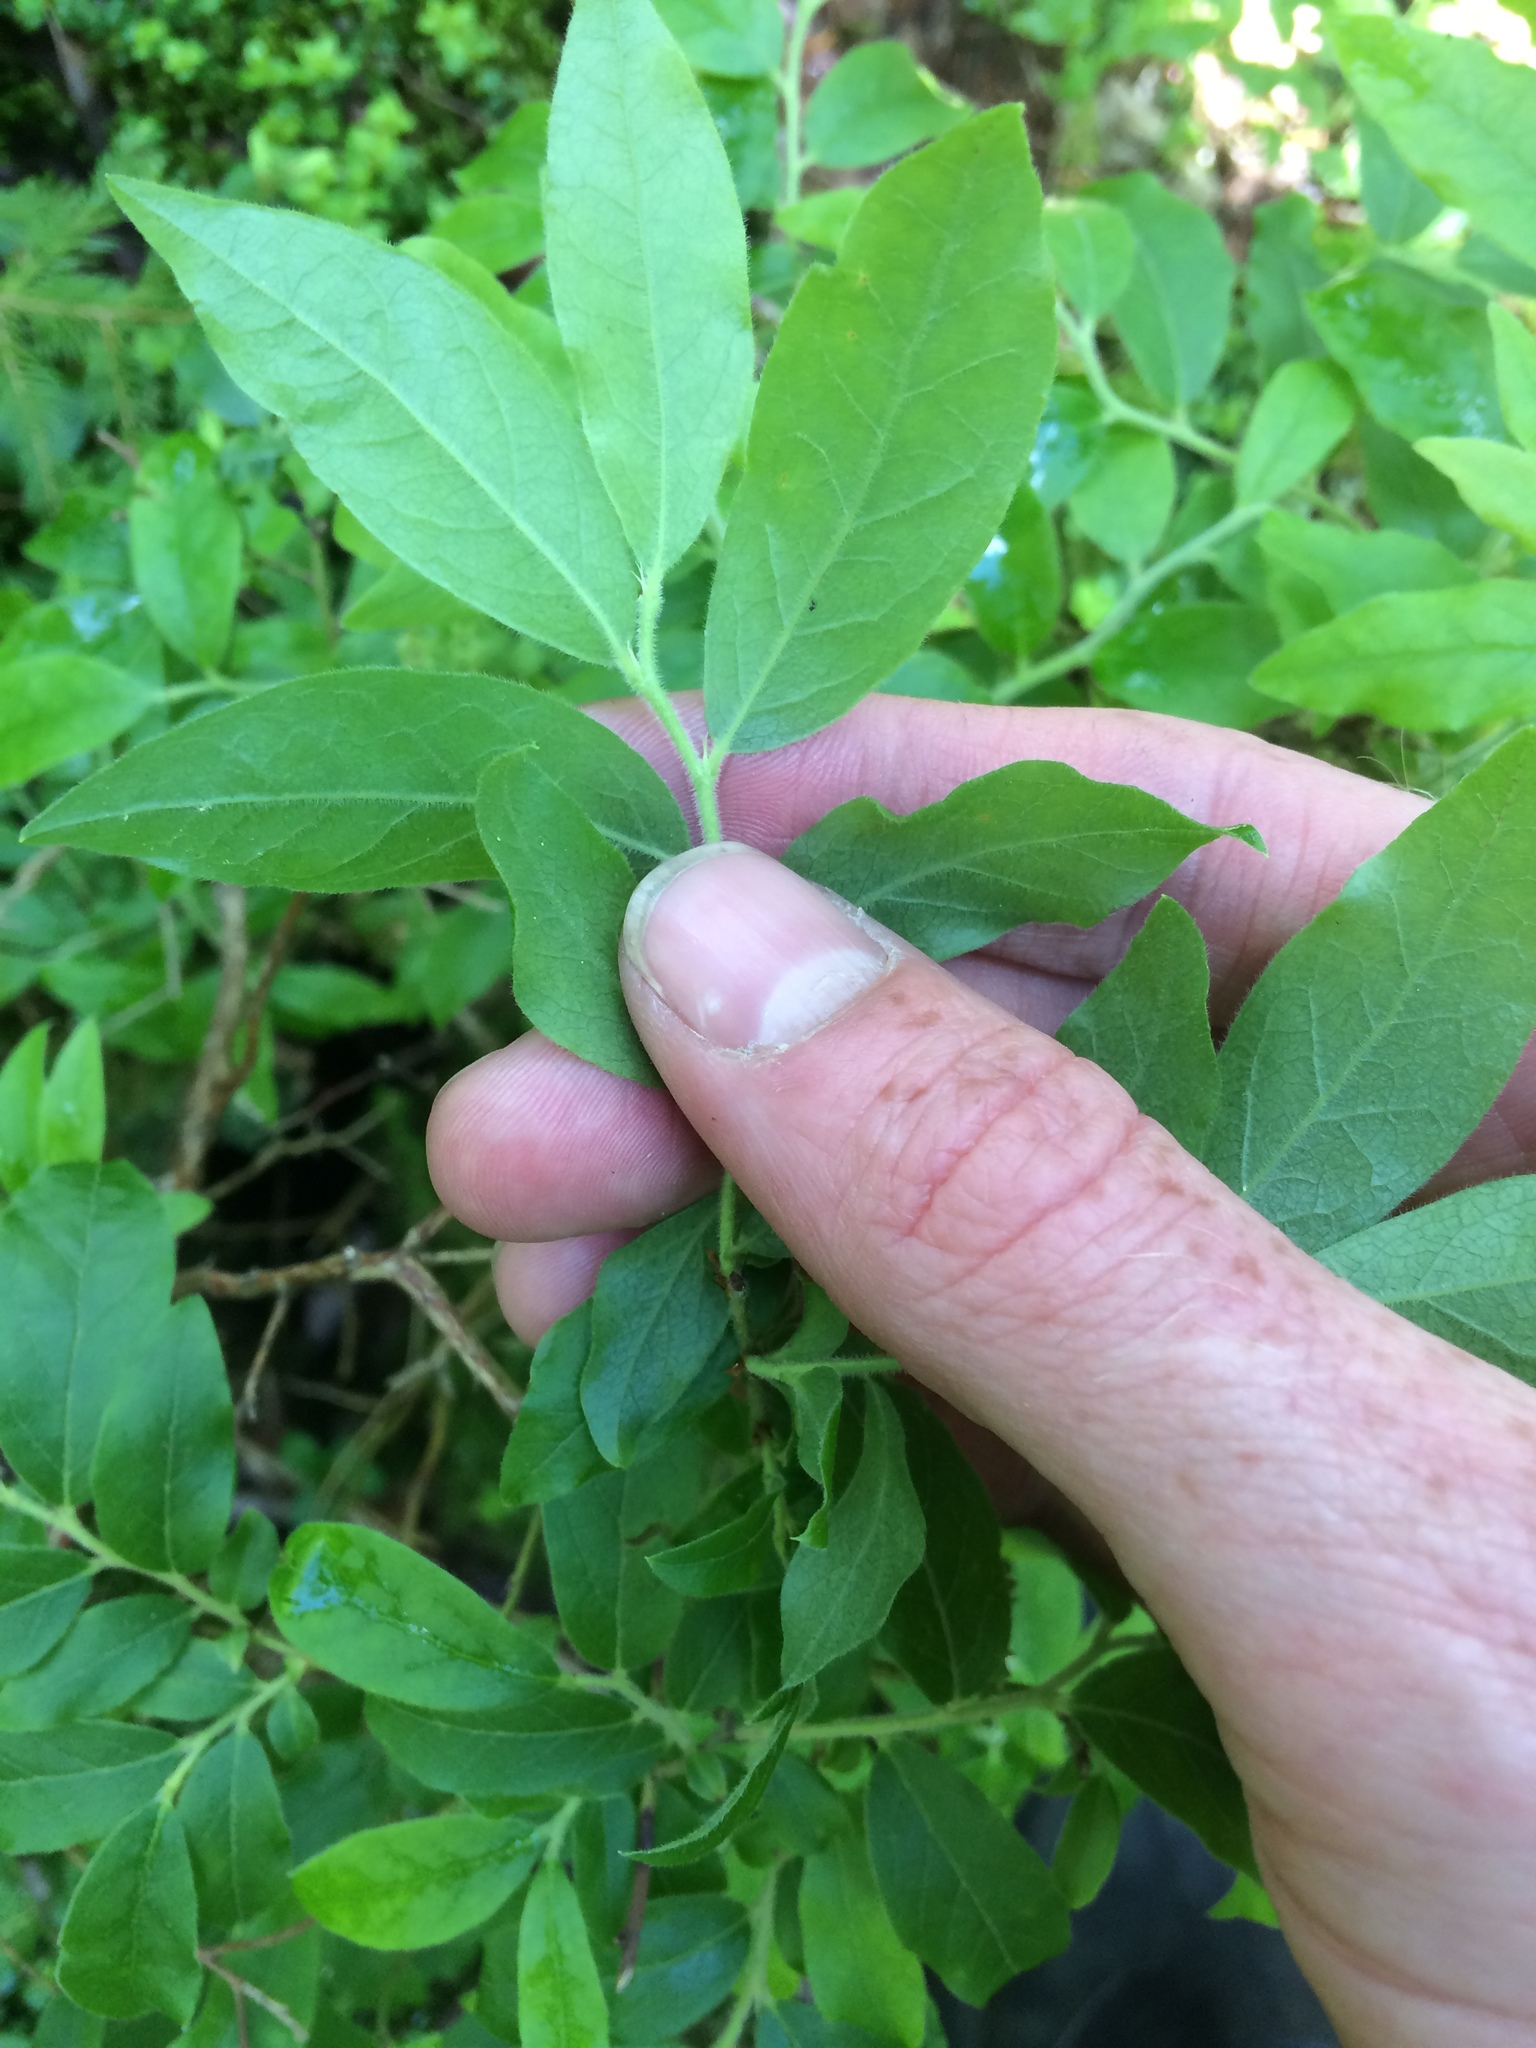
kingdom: Plantae
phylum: Tracheophyta
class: Magnoliopsida
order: Ericales
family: Ericaceae
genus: Vaccinium
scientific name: Vaccinium myrtilloides
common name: Canada blueberry
